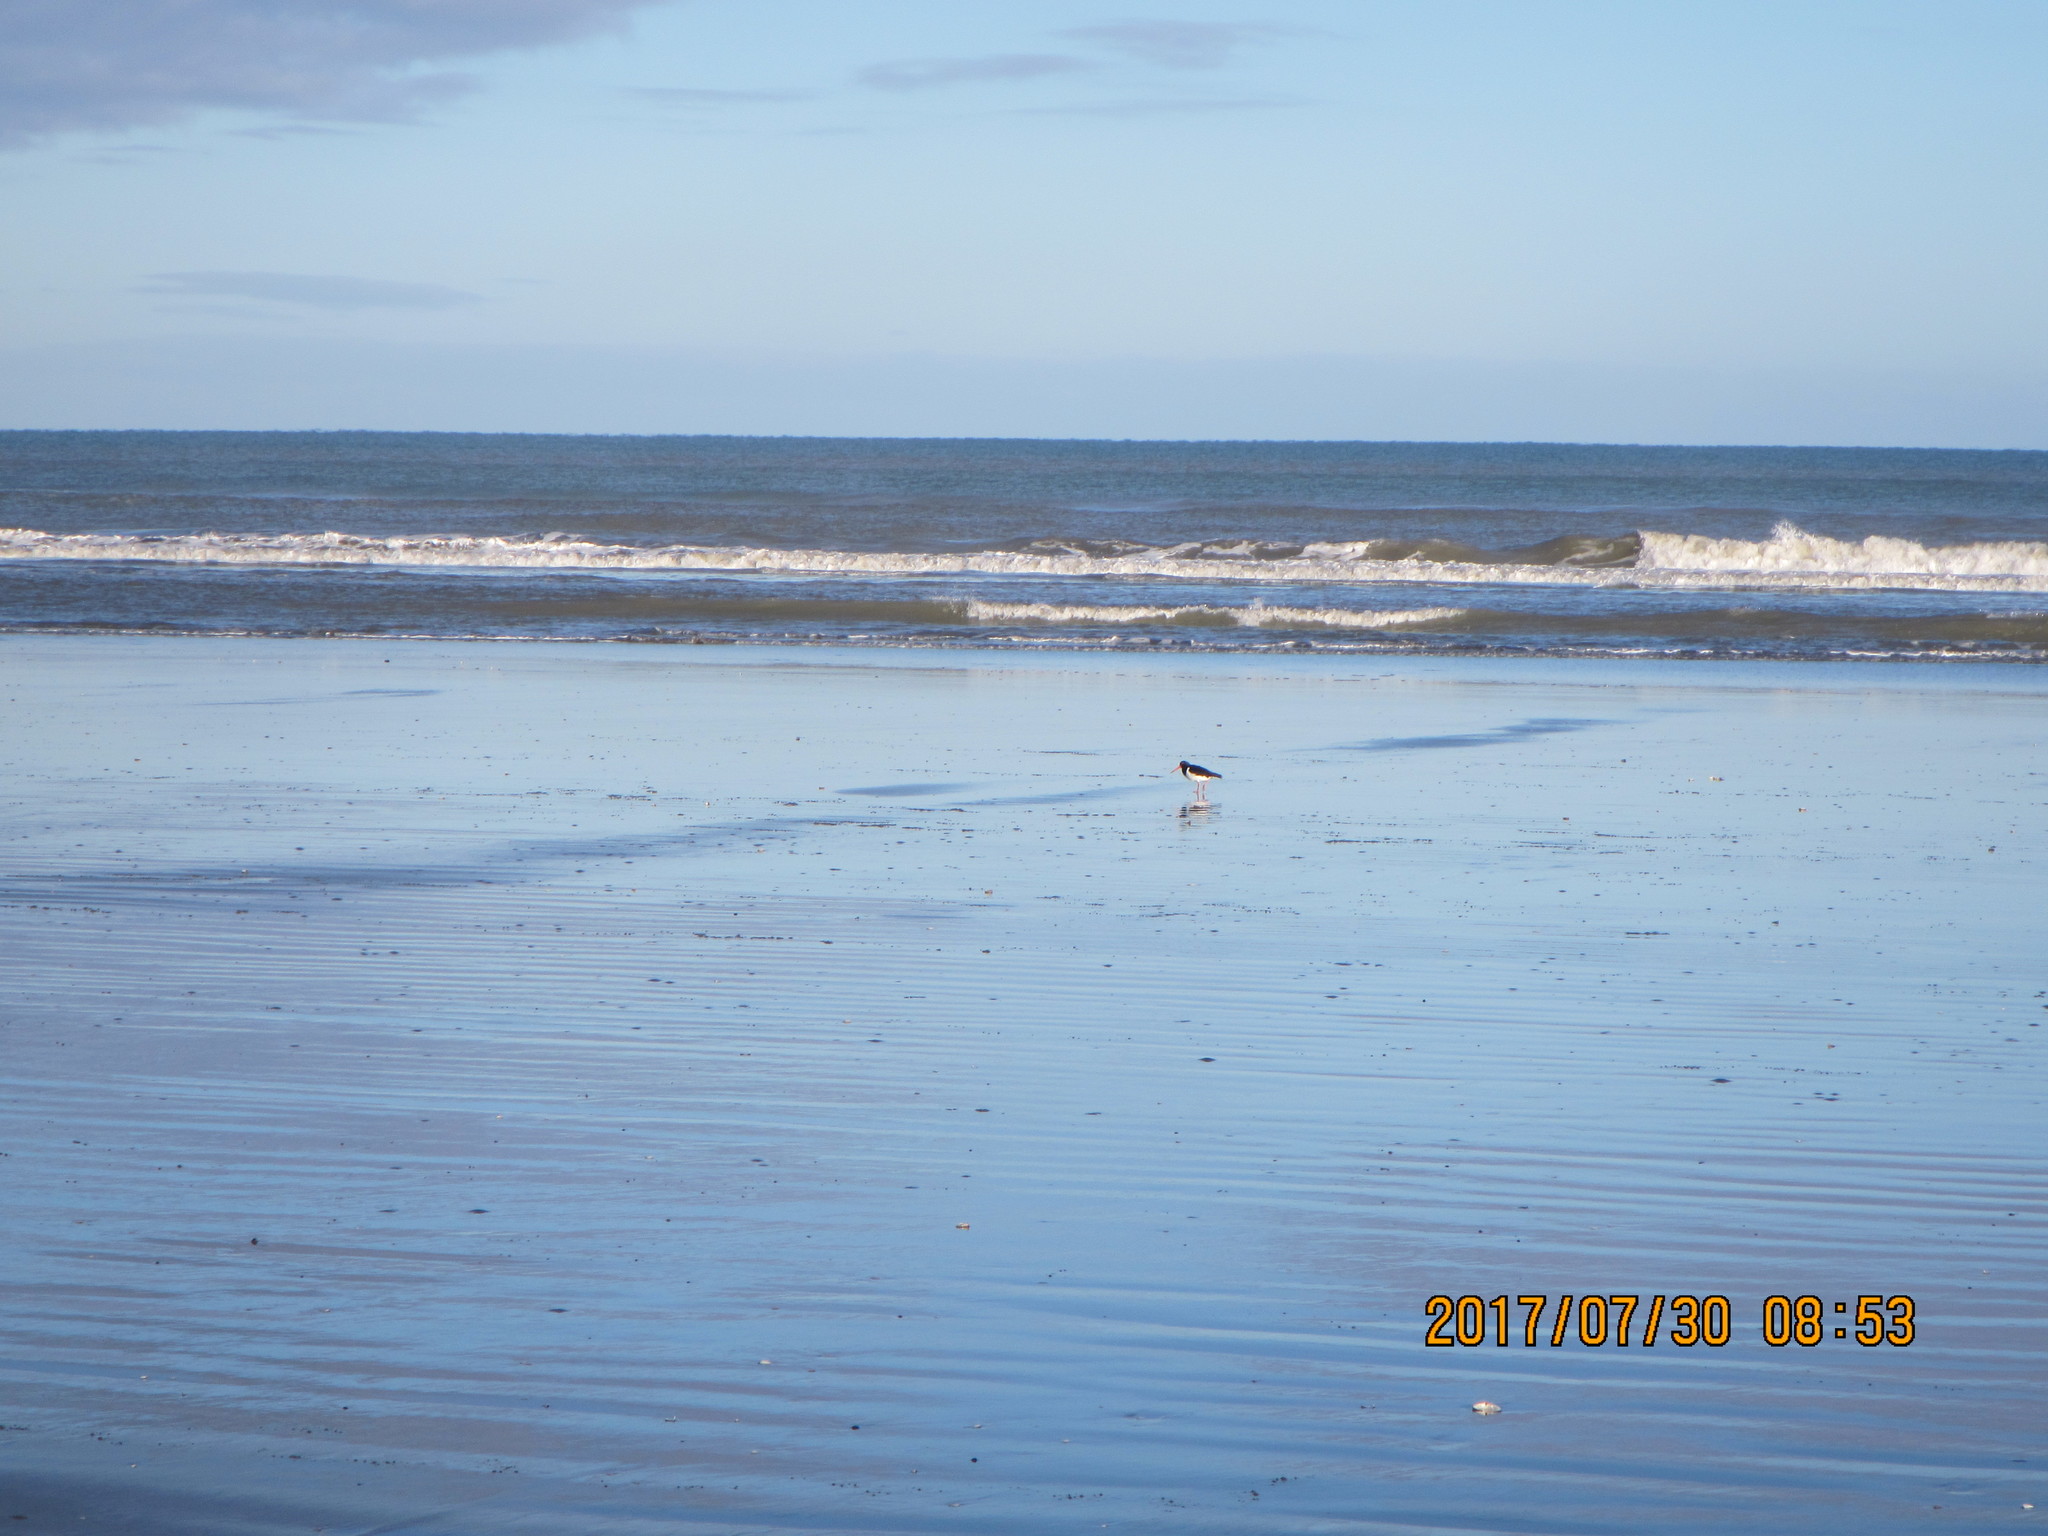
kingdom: Animalia
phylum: Chordata
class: Aves
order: Charadriiformes
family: Haematopodidae
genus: Haematopus
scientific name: Haematopus finschi
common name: South island oystercatcher
